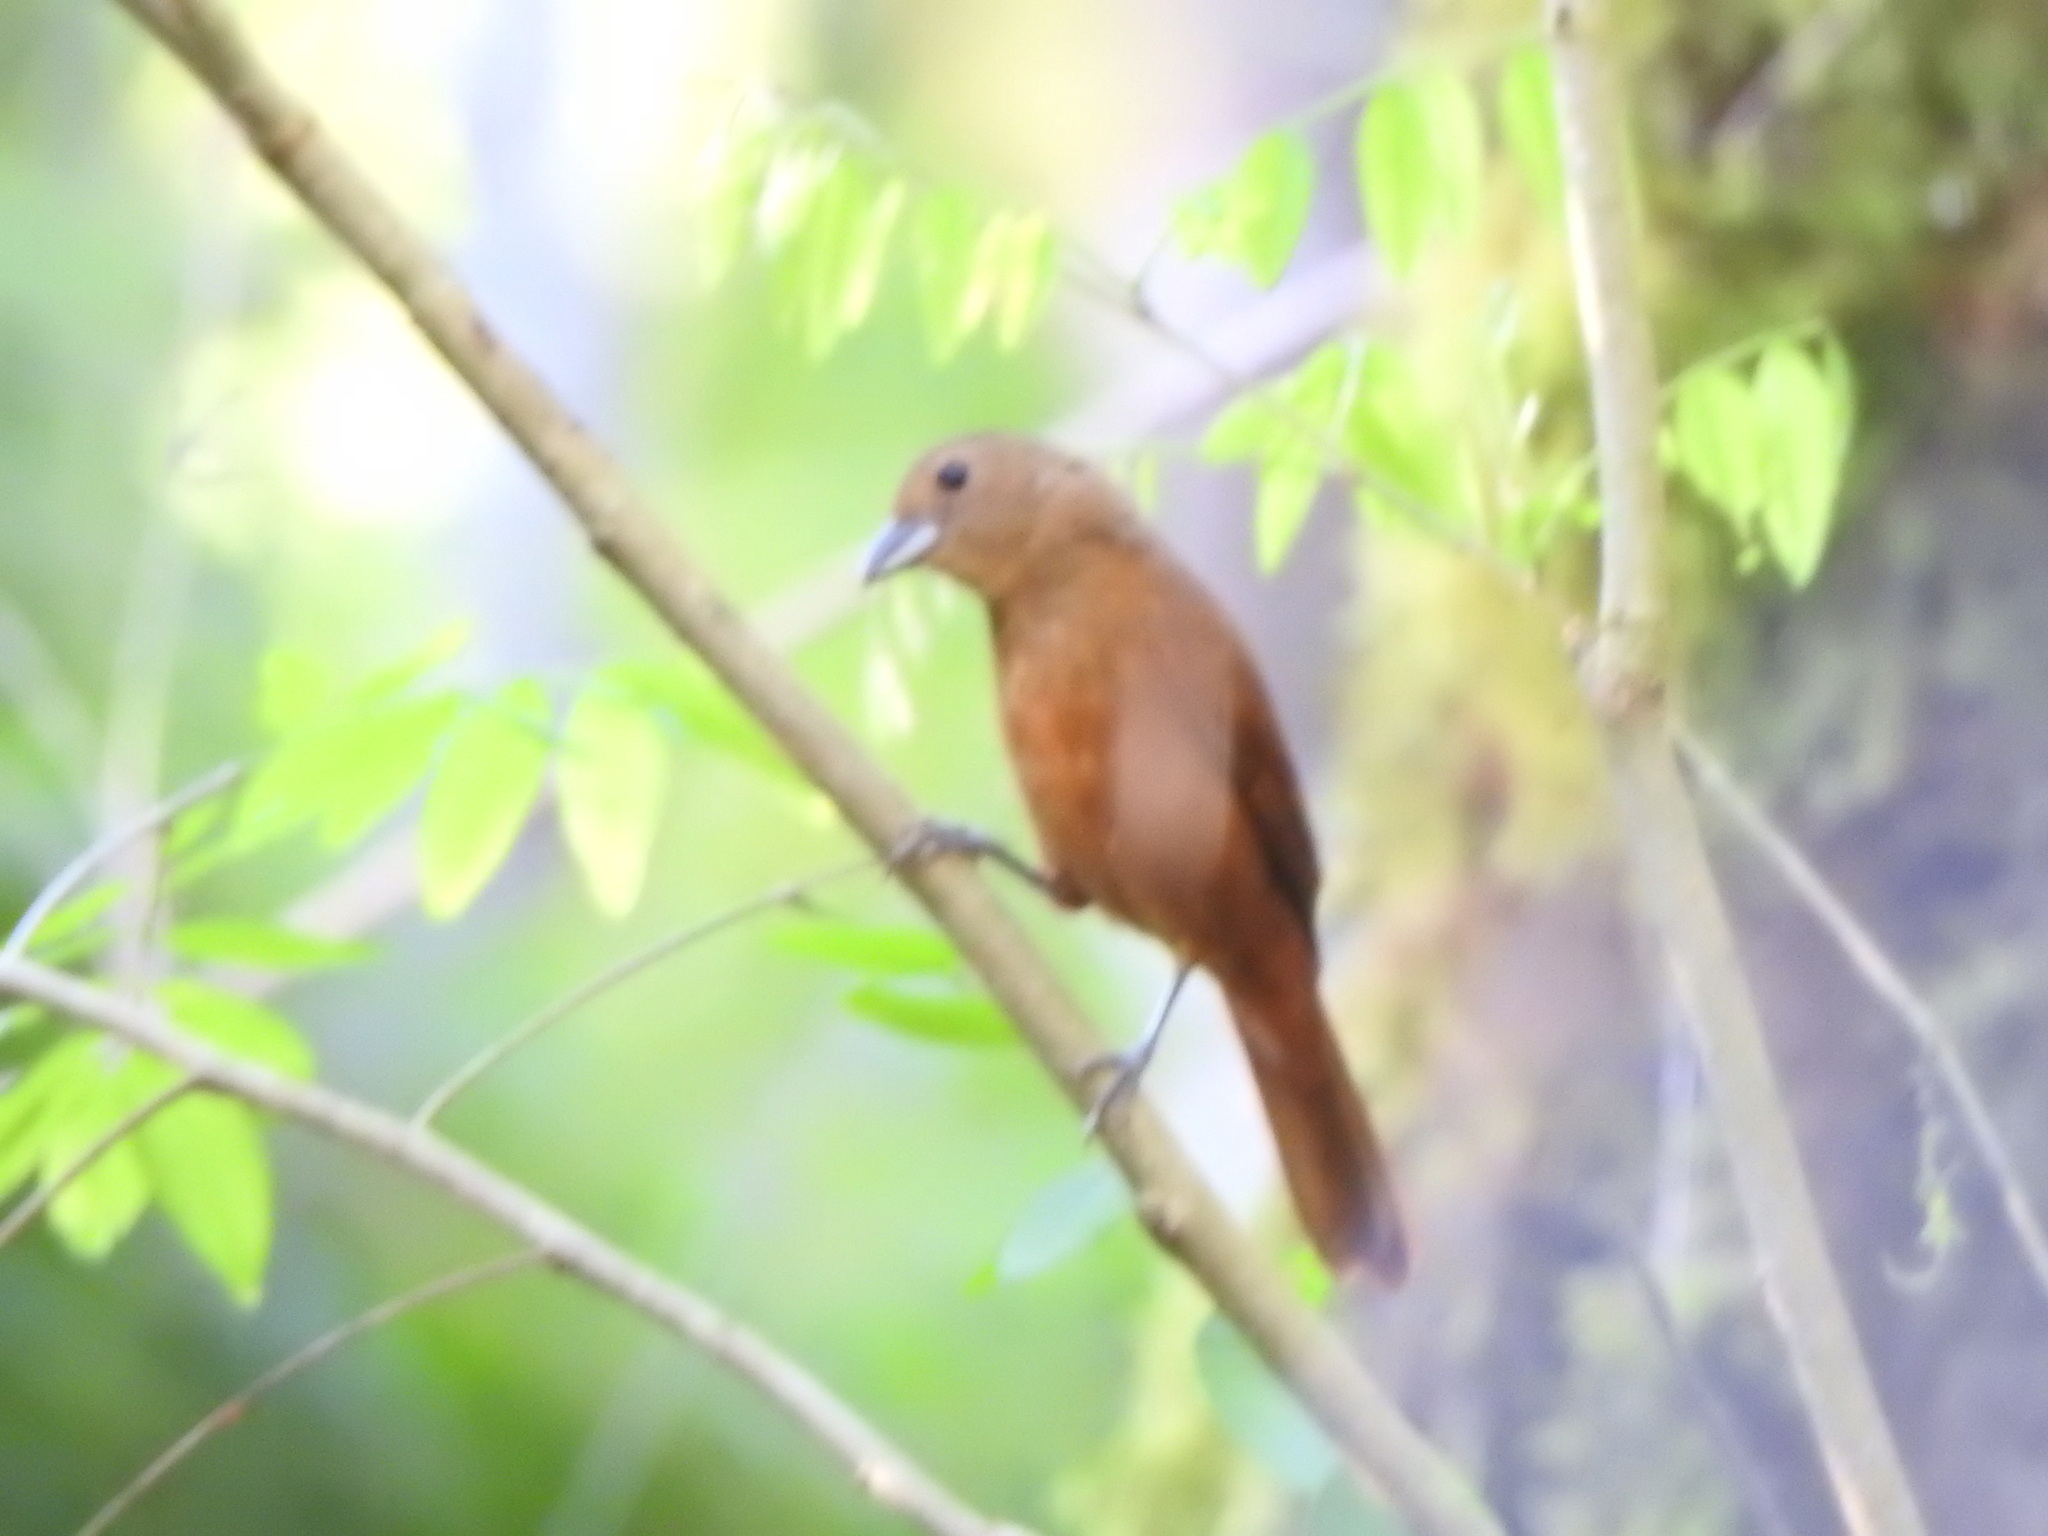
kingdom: Animalia
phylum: Chordata
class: Aves
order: Passeriformes
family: Thraupidae
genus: Tachyphonus
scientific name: Tachyphonus coronatus
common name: Ruby-crowned tanager
